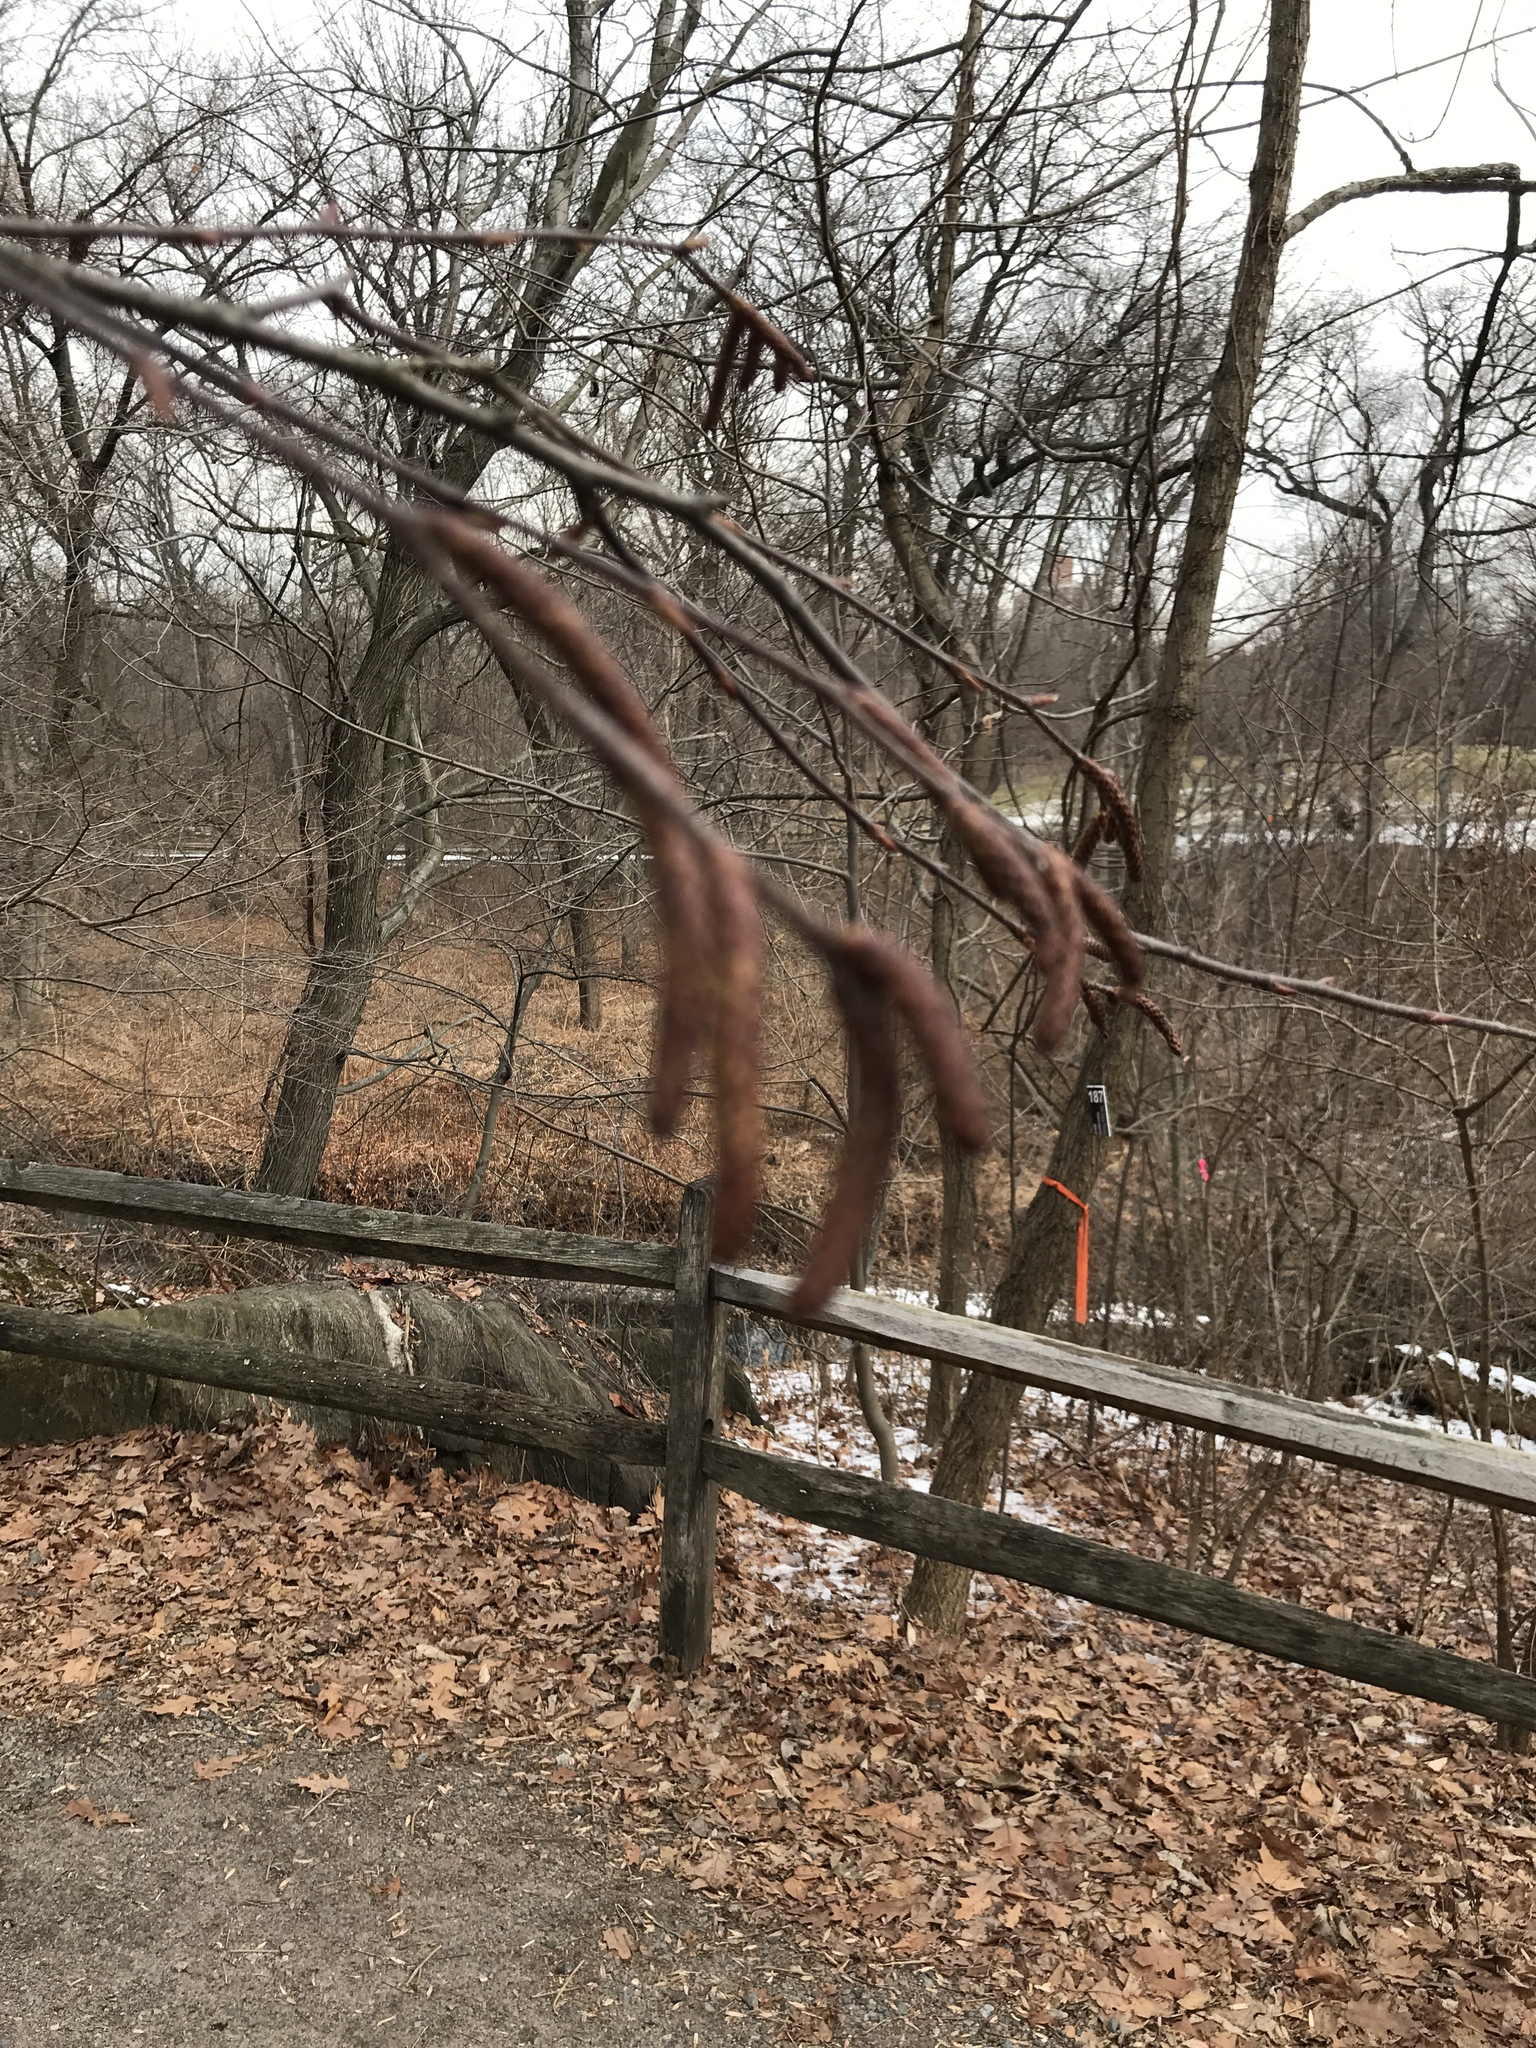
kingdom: Plantae
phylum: Tracheophyta
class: Magnoliopsida
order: Fagales
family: Betulaceae
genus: Betula
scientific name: Betula lenta
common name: Black birch
